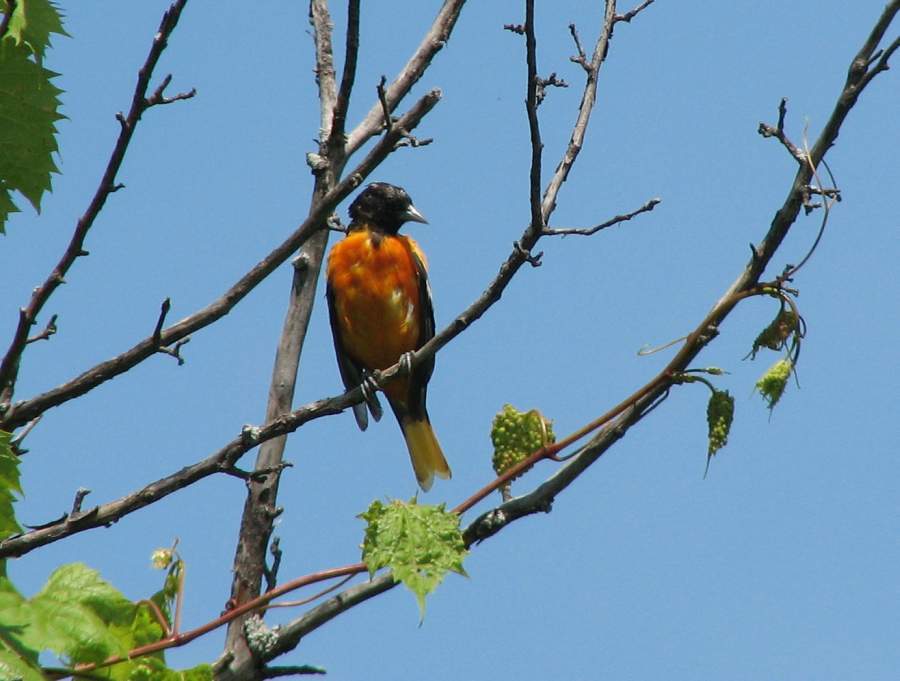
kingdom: Animalia
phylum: Chordata
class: Aves
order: Passeriformes
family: Icteridae
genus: Icterus
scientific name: Icterus galbula
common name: Baltimore oriole
